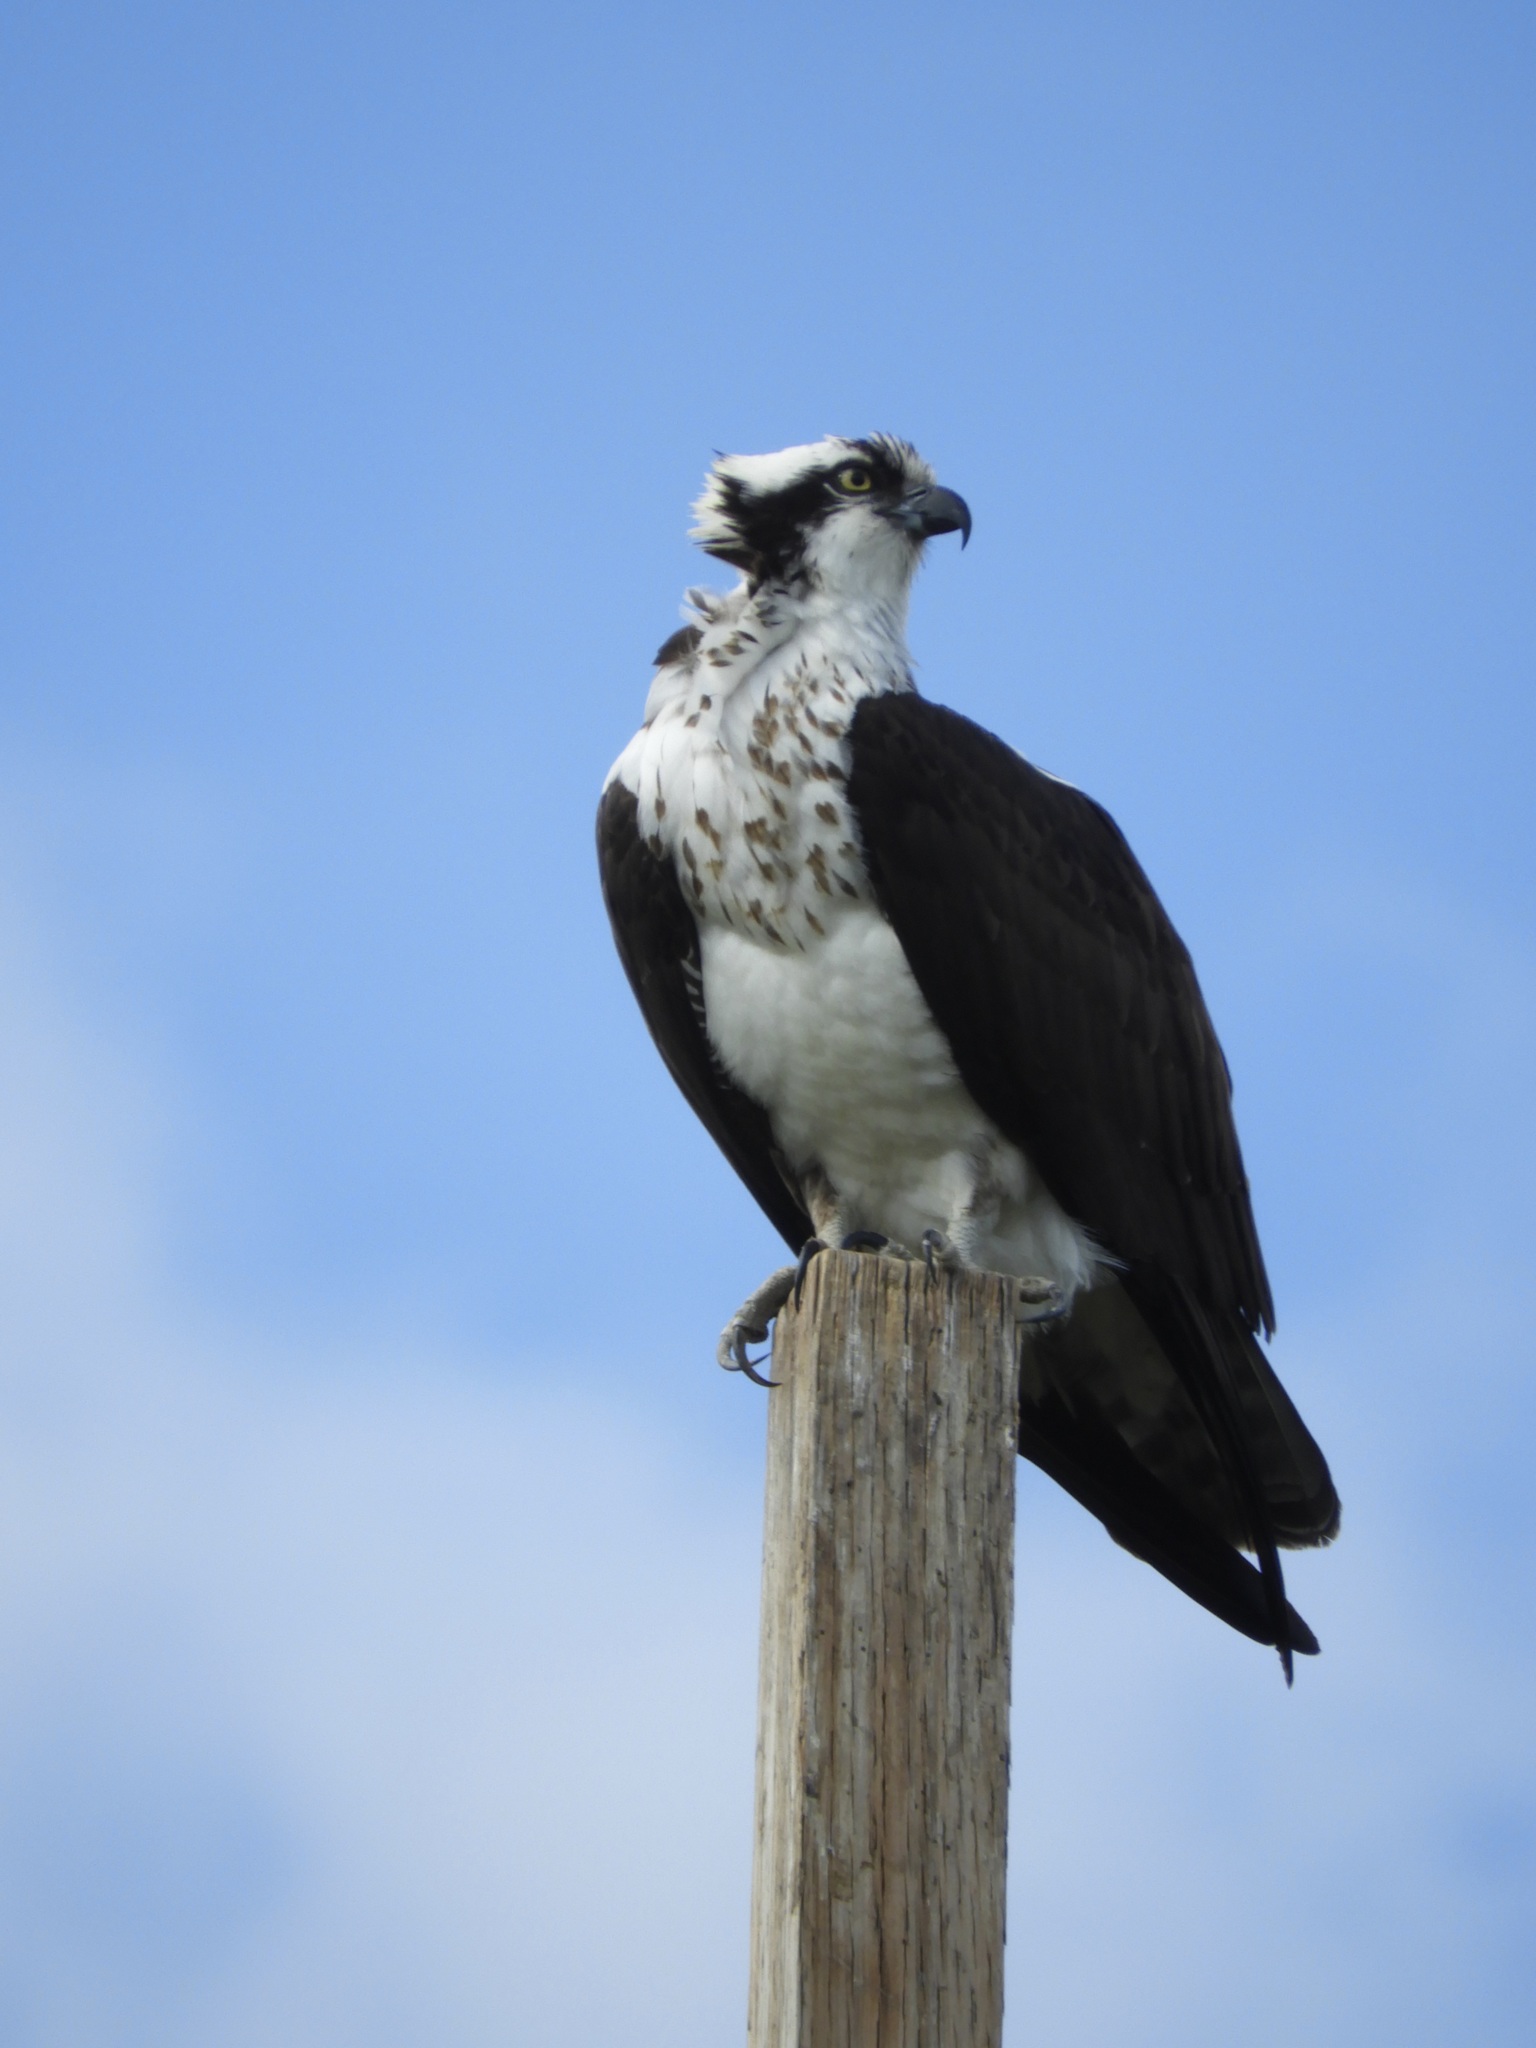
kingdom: Animalia
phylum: Chordata
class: Aves
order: Accipitriformes
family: Pandionidae
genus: Pandion
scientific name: Pandion haliaetus
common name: Osprey
